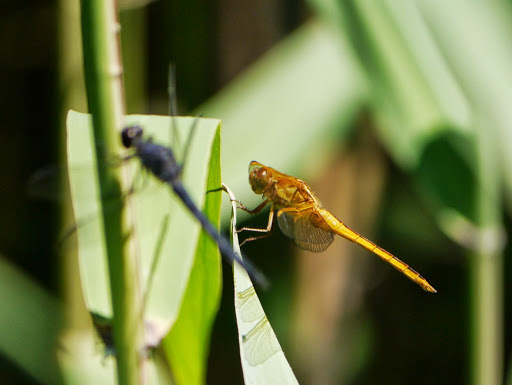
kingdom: Animalia
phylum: Arthropoda
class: Insecta
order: Odonata
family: Libellulidae
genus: Libellula
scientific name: Libellula needhami
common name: Needham's skimmer
